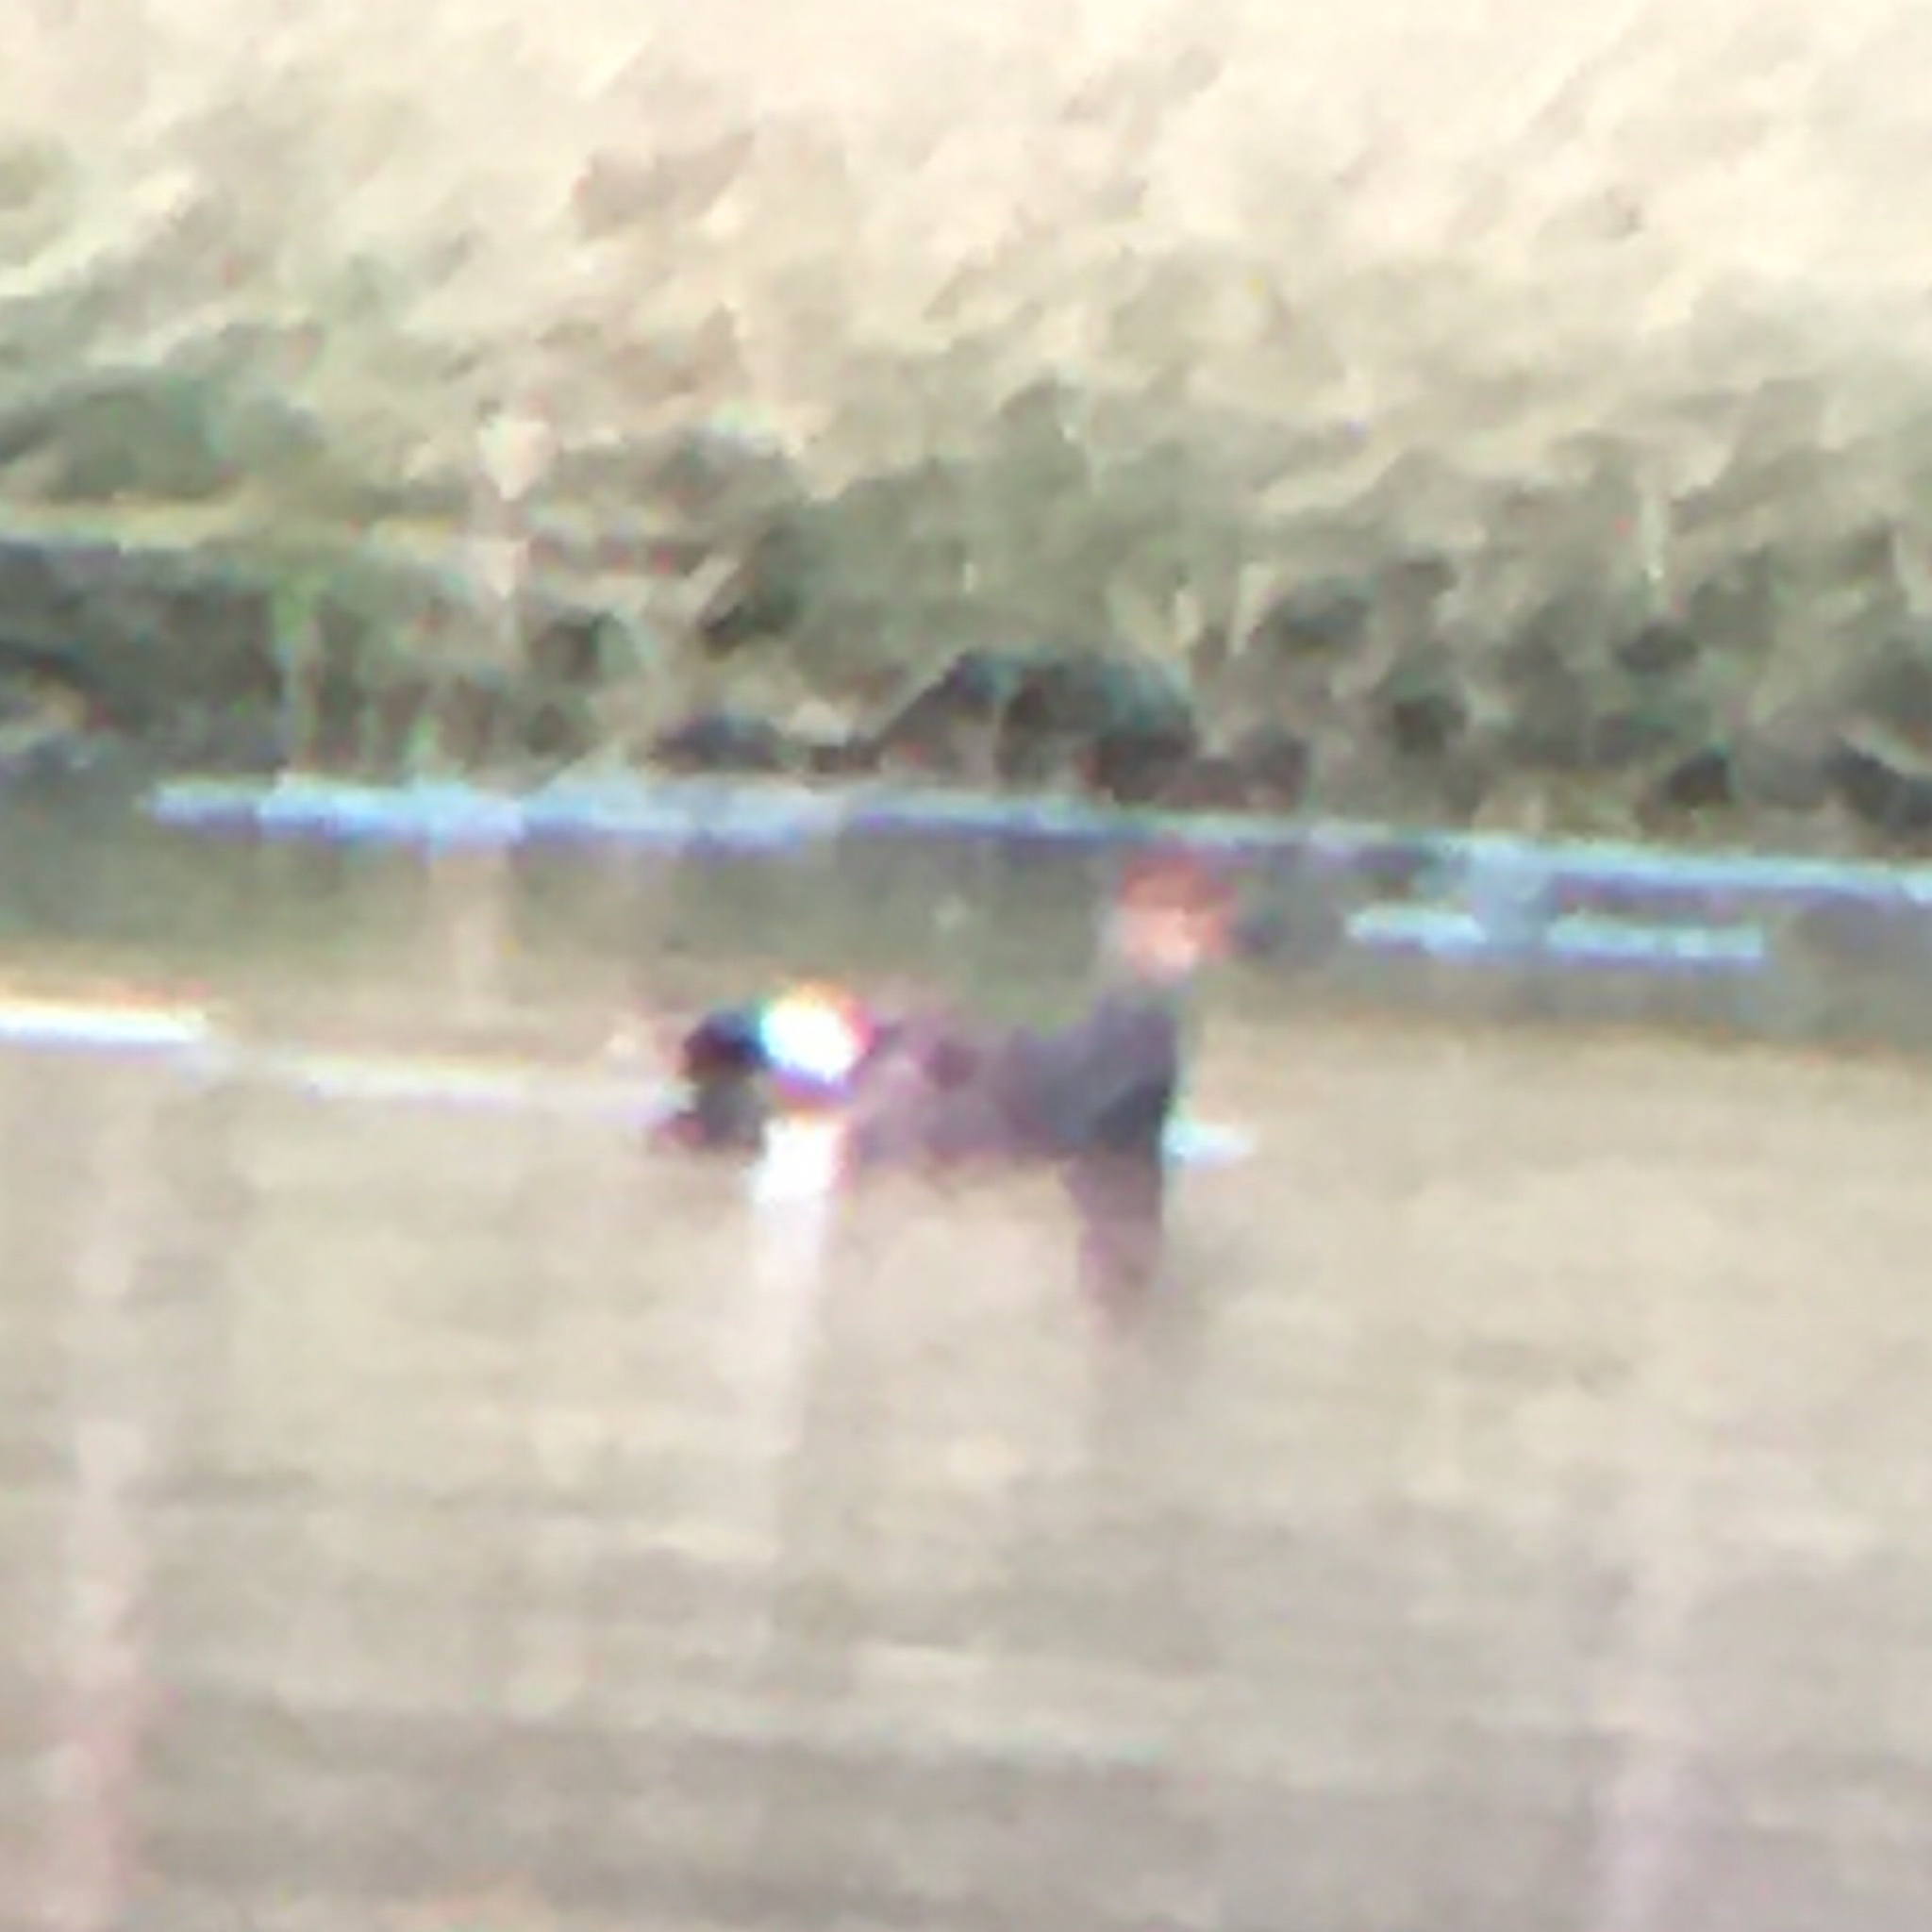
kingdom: Animalia
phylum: Chordata
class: Aves
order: Anseriformes
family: Anatidae
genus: Mareca
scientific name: Mareca strepera
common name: Gadwall
